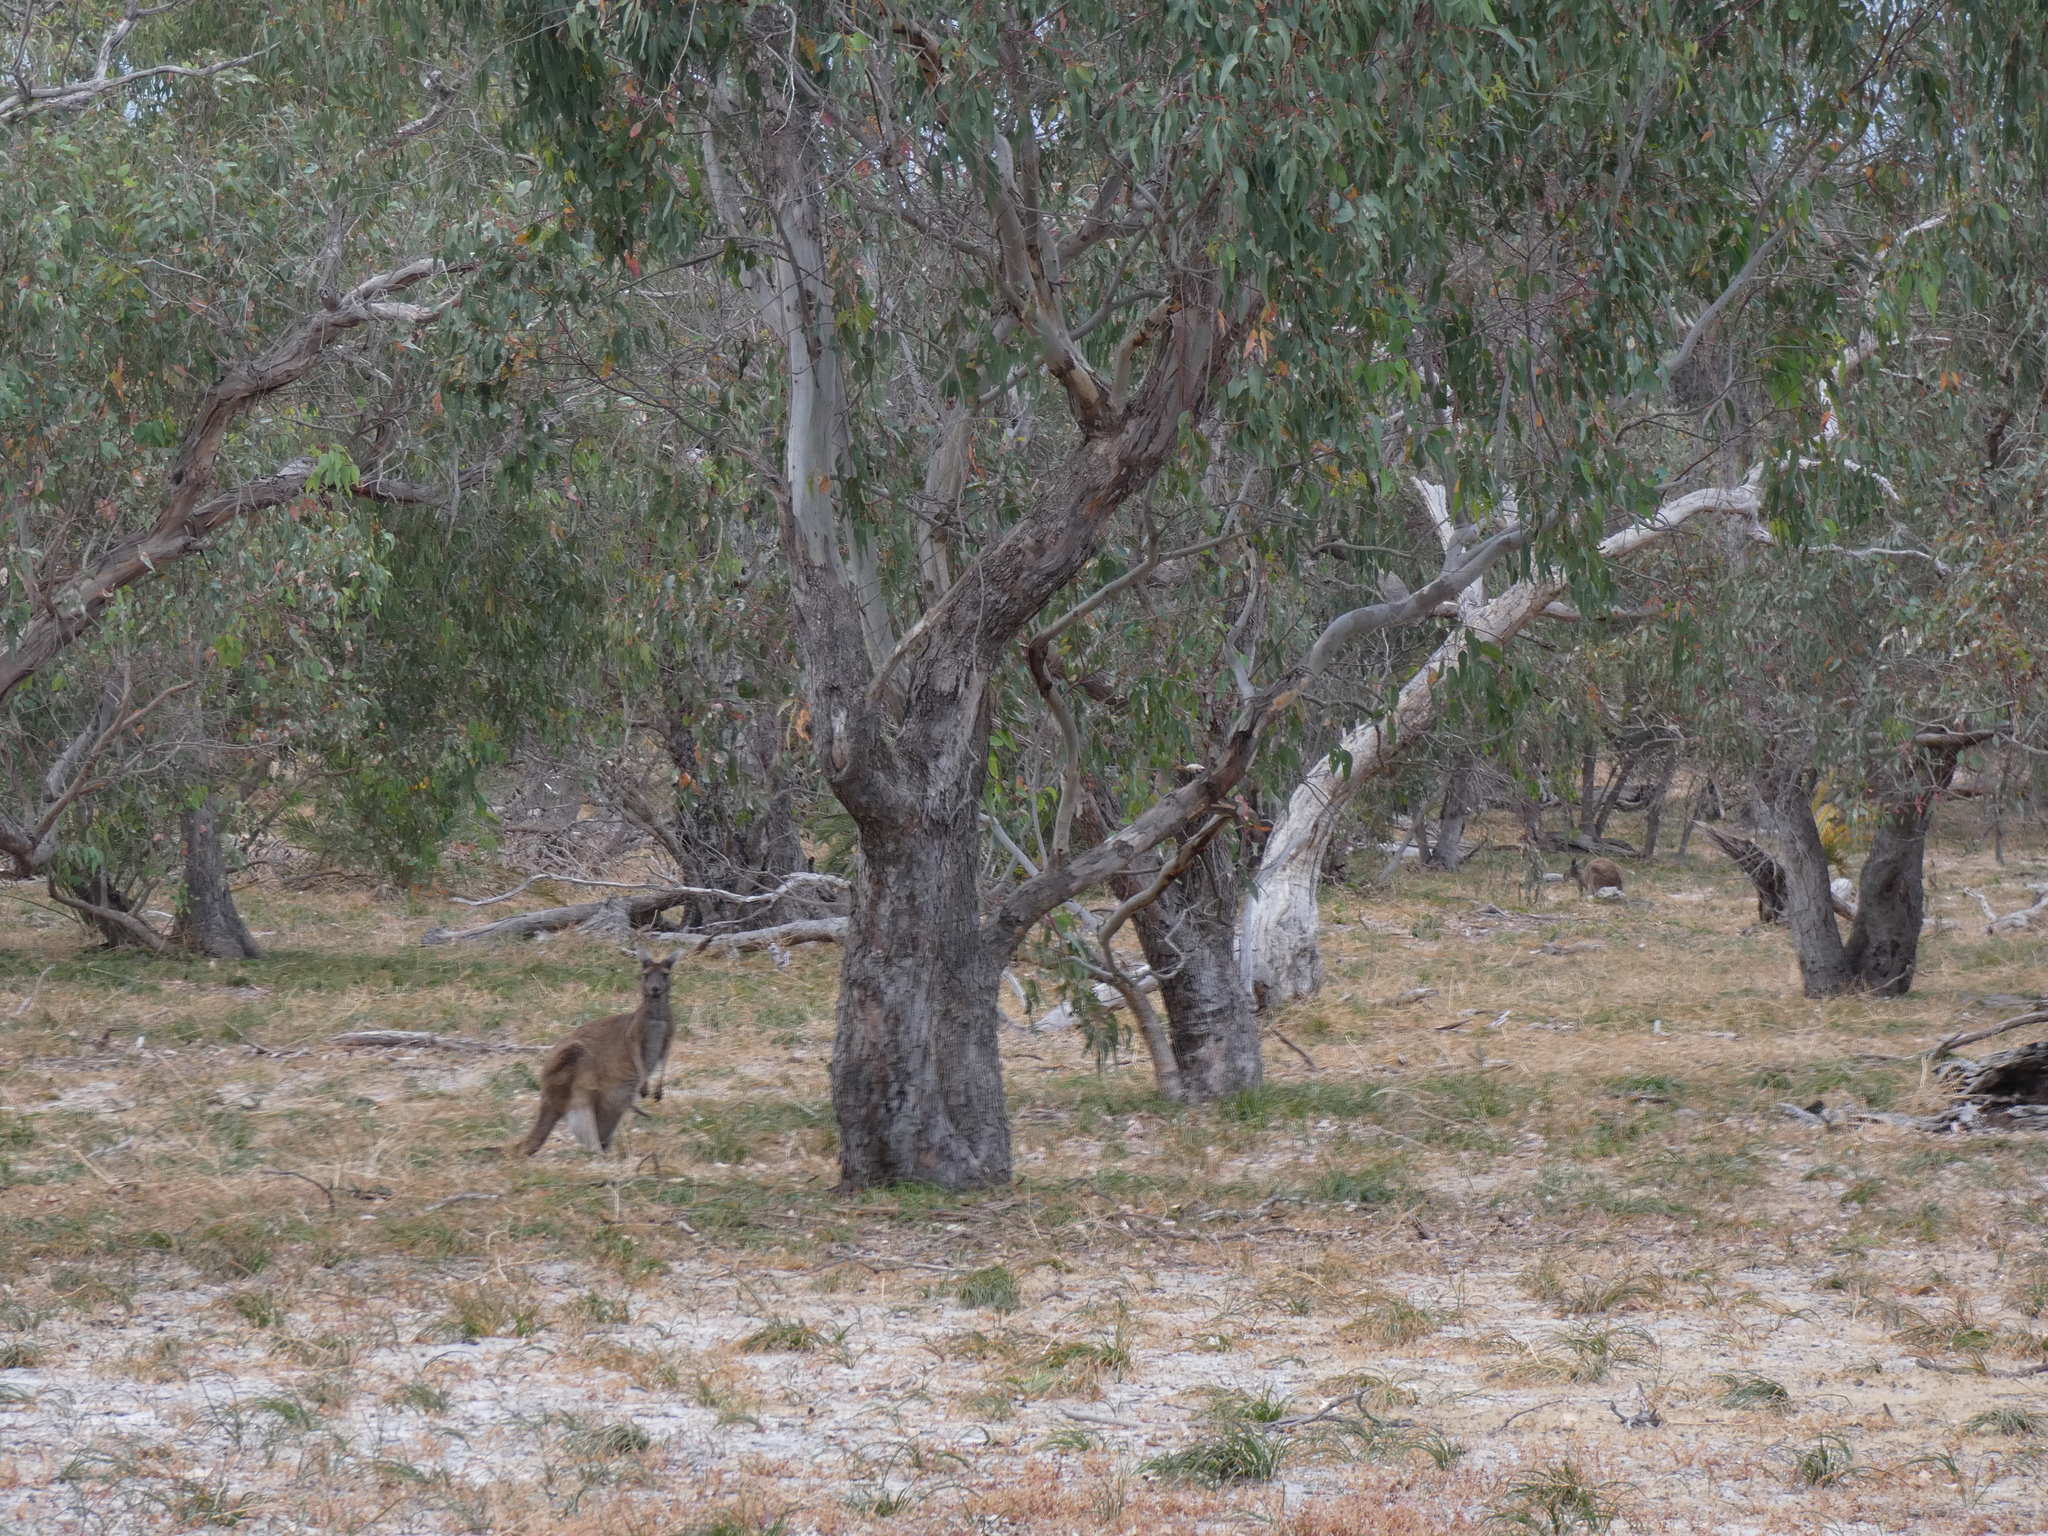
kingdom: Animalia
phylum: Chordata
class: Mammalia
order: Diprotodontia
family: Macropodidae
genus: Macropus
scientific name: Macropus fuliginosus
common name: Western grey kangaroo
